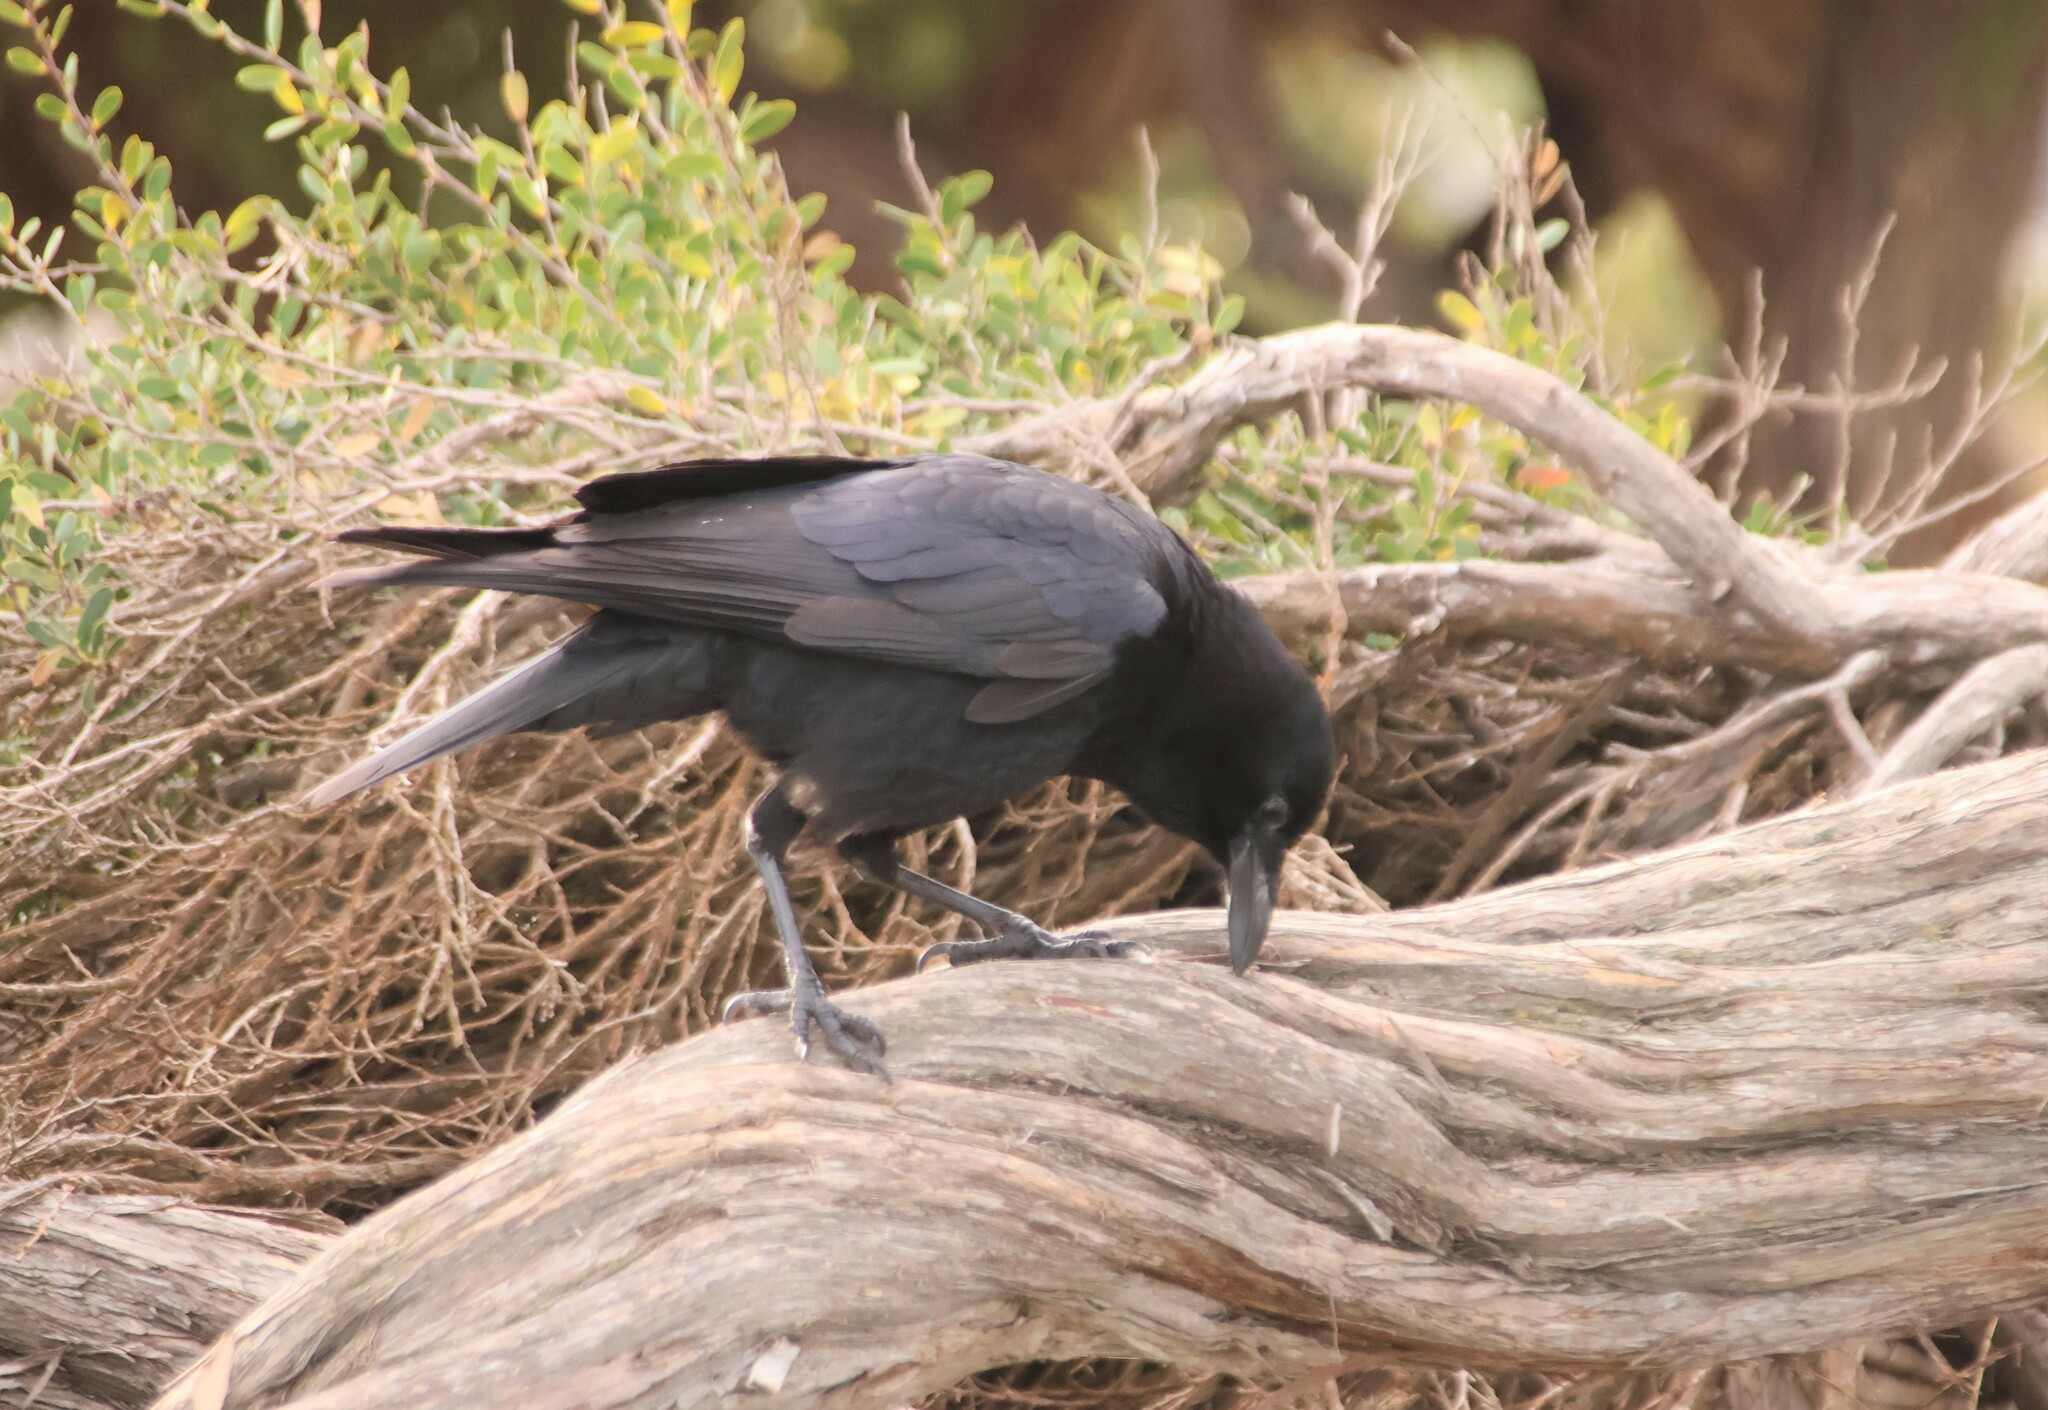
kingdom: Animalia
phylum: Chordata
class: Aves
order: Passeriformes
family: Corvidae
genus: Corvus
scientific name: Corvus brachyrhynchos
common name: American crow
